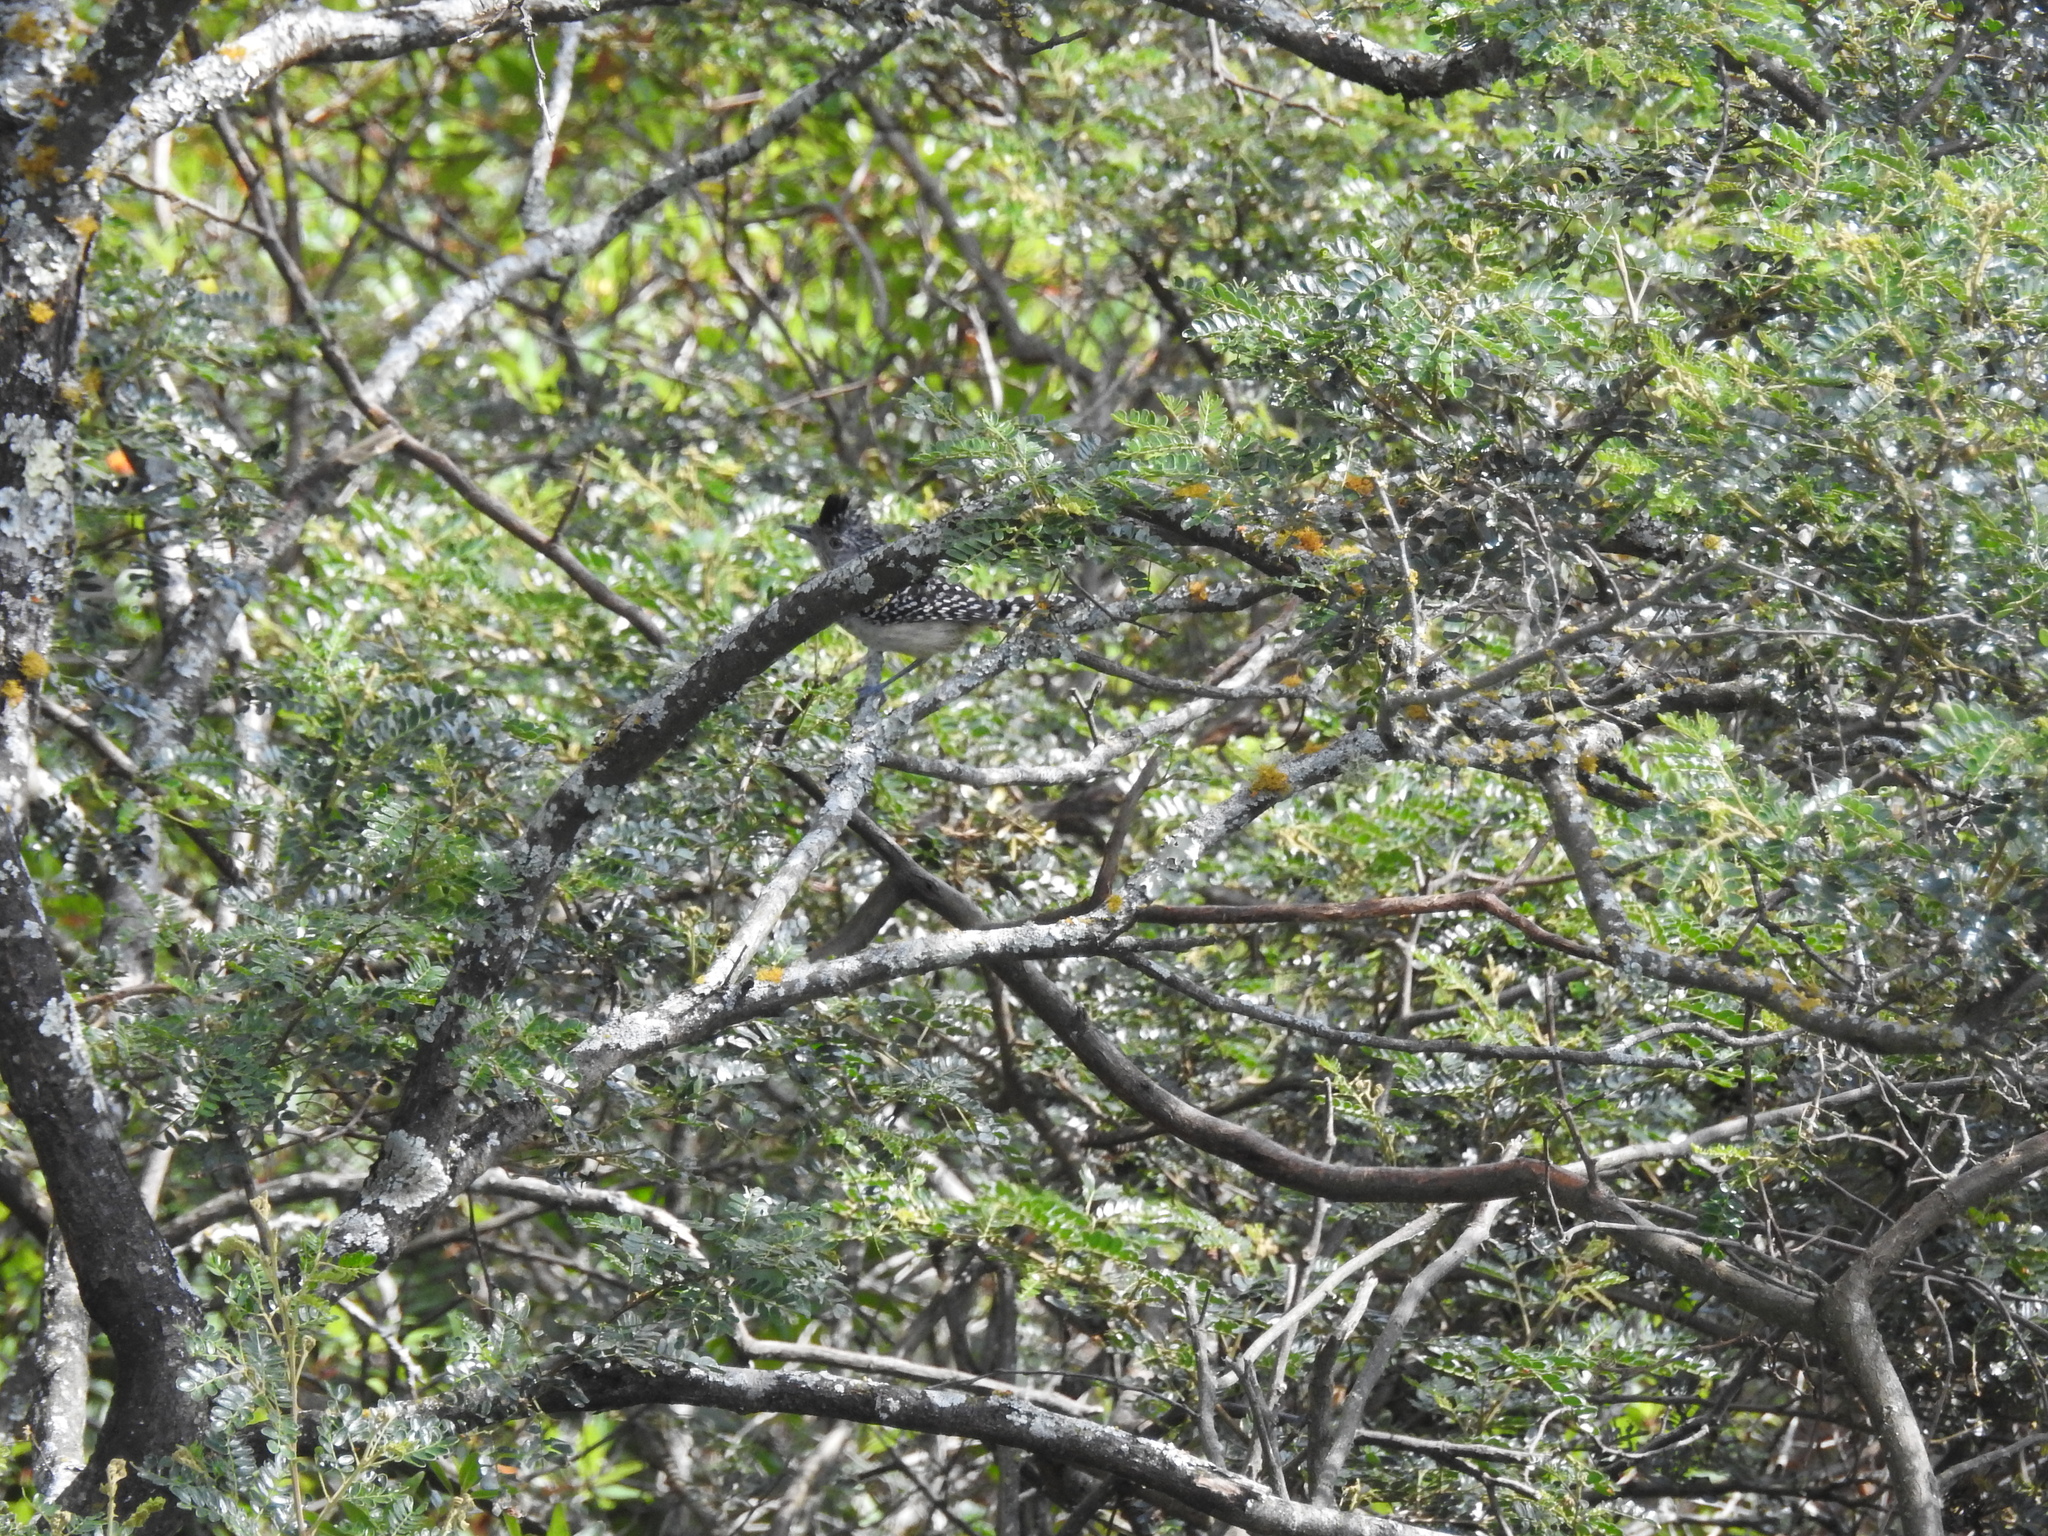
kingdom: Animalia
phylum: Chordata
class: Aves
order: Passeriformes
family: Thamnophilidae
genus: Thamnophilus
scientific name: Thamnophilus zarumae
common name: Chapman's antshrike
